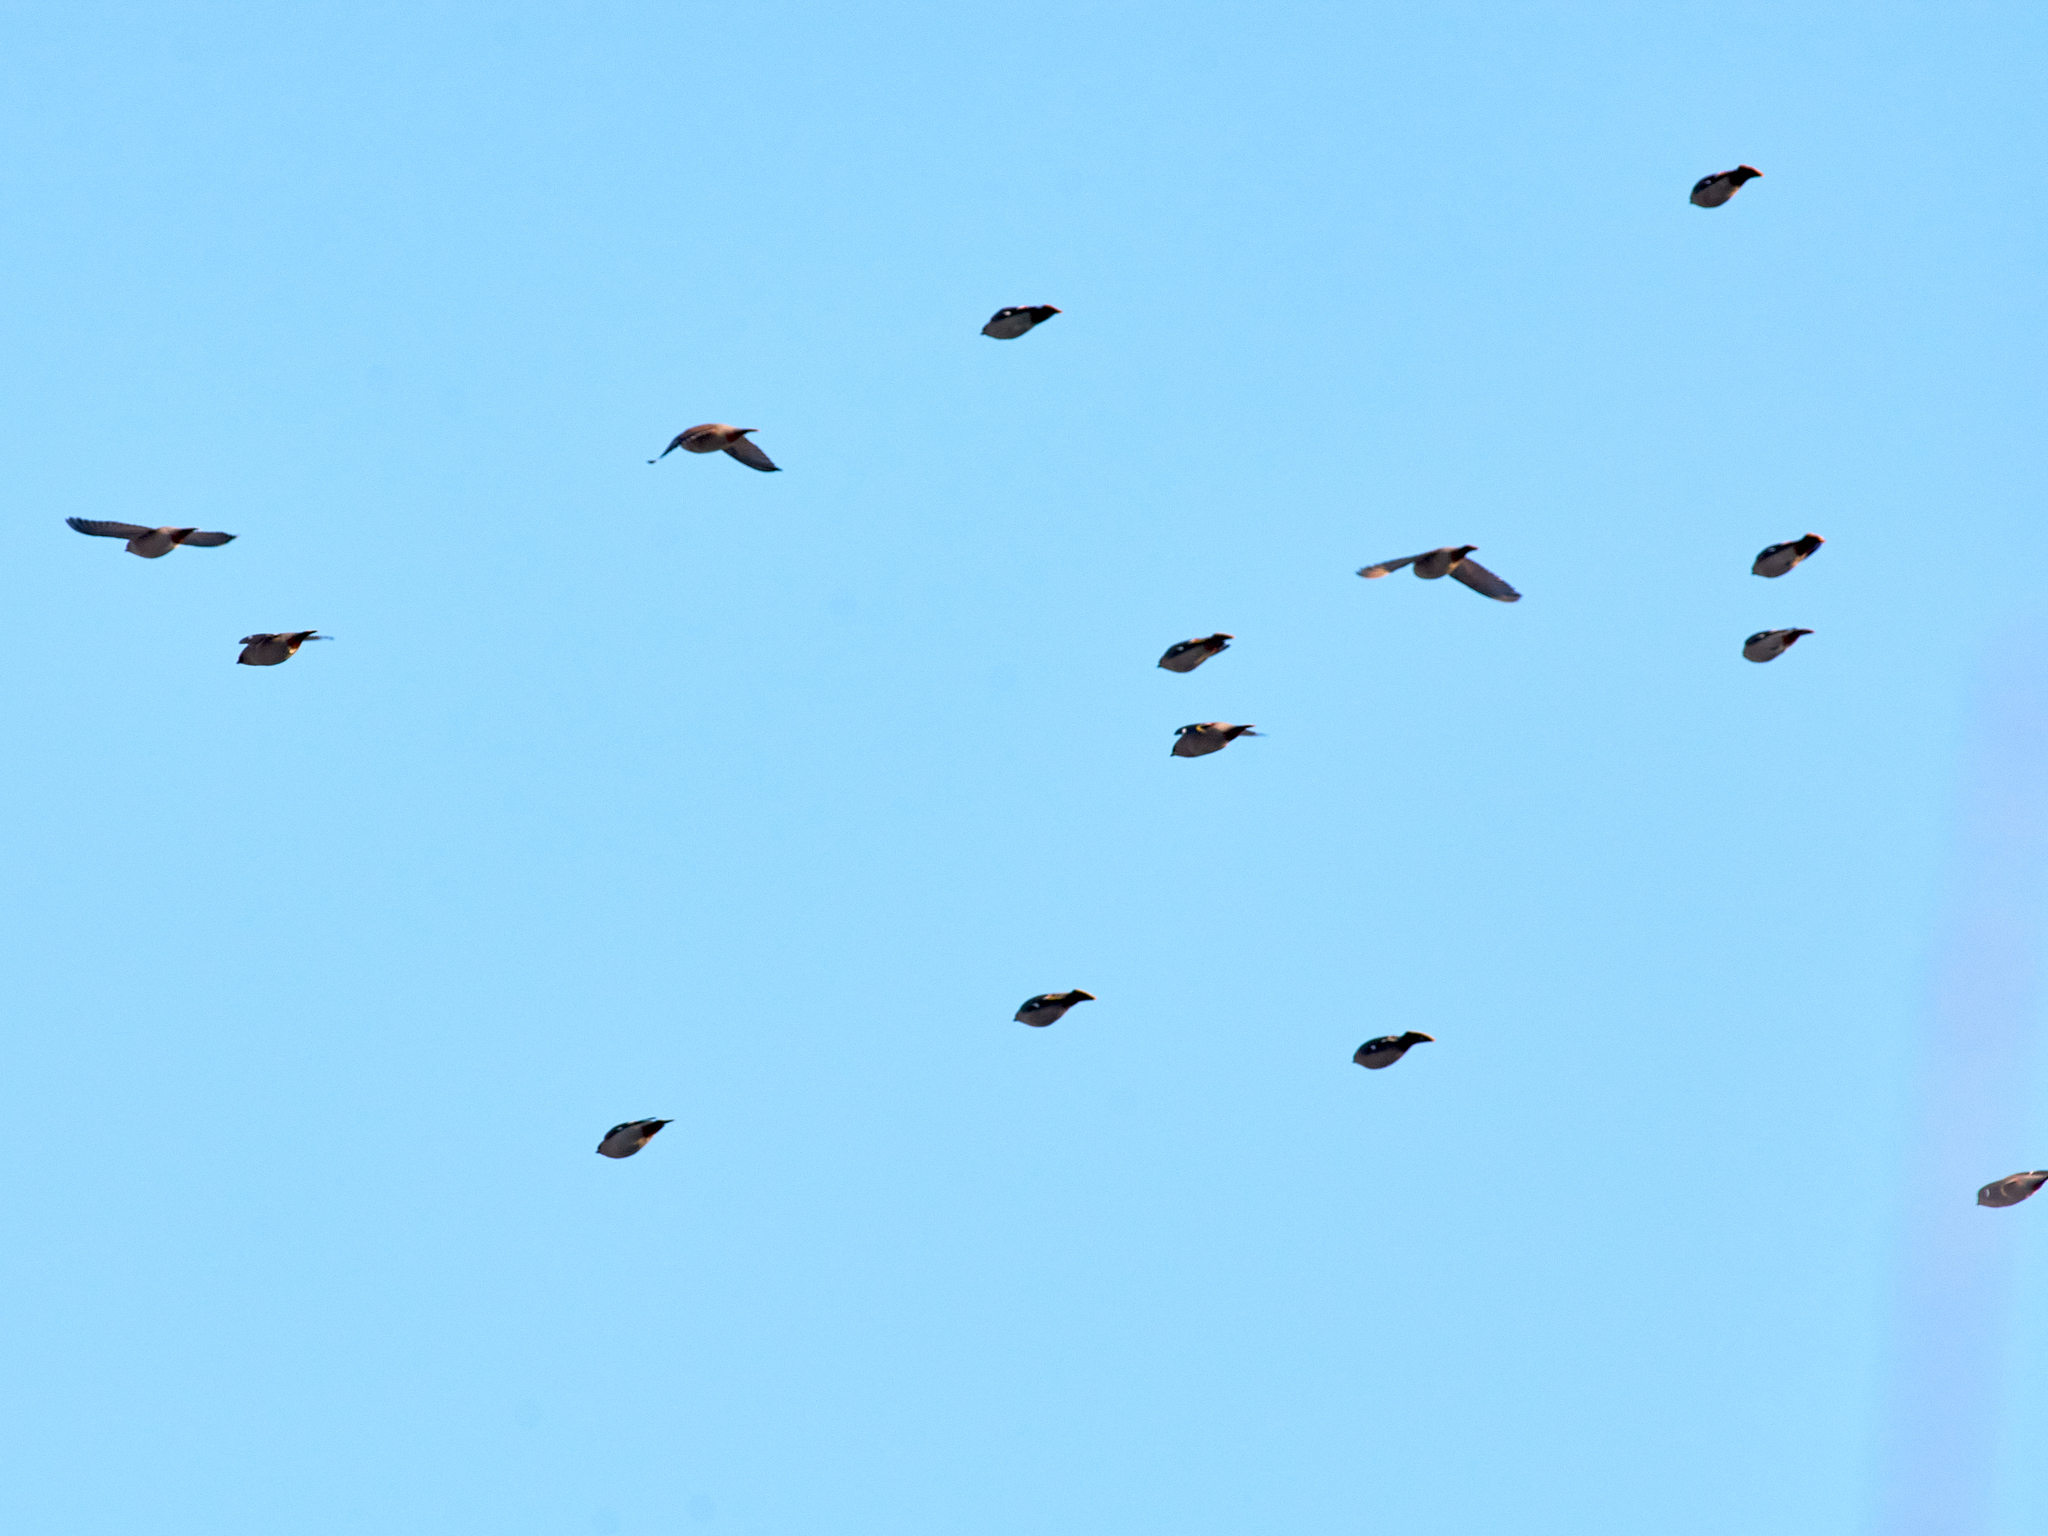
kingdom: Animalia
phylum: Chordata
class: Aves
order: Passeriformes
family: Bombycillidae
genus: Bombycilla
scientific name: Bombycilla garrulus
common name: Bohemian waxwing
